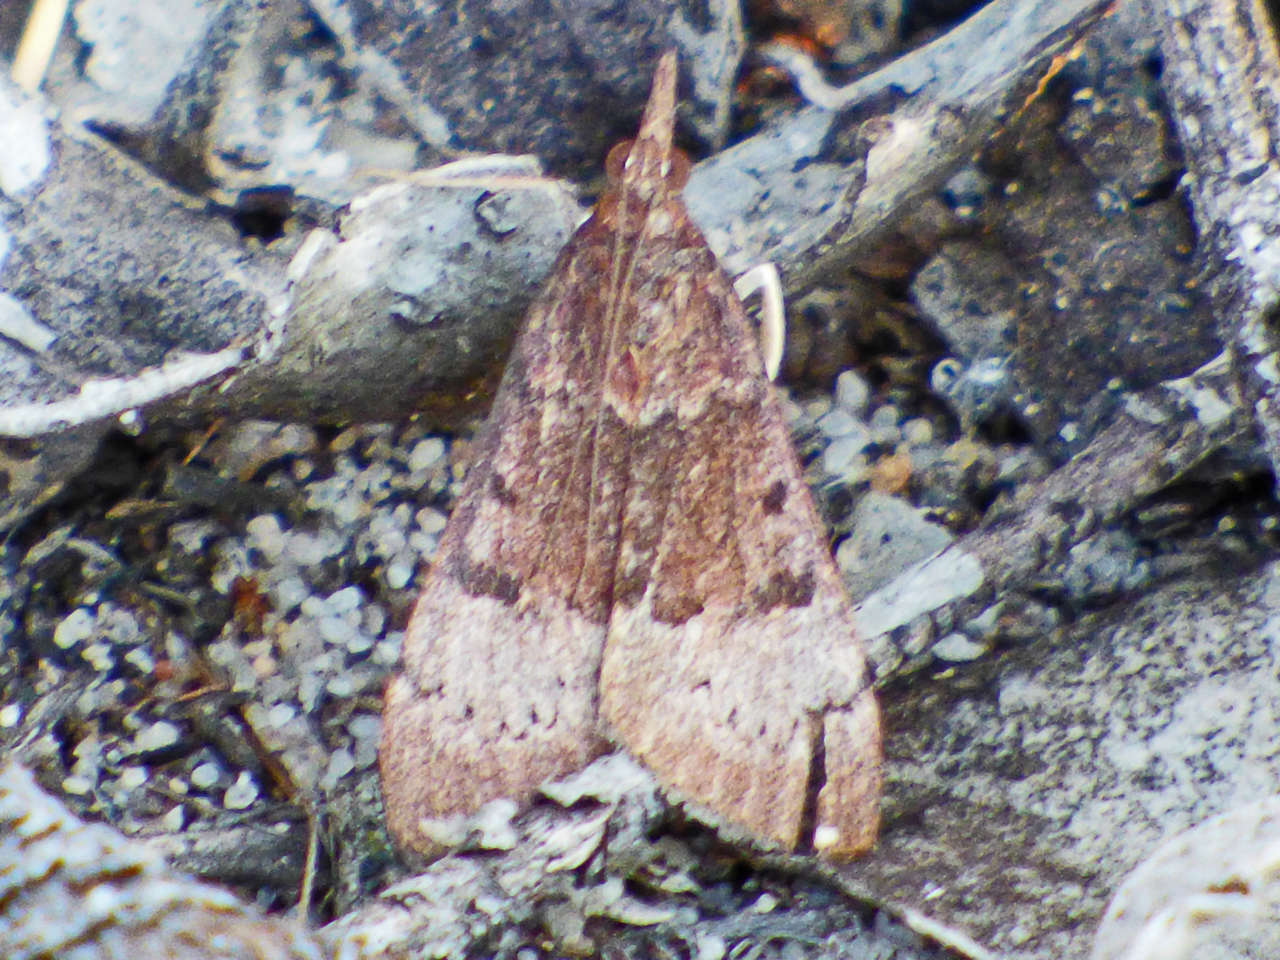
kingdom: Animalia
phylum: Arthropoda
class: Insecta
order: Lepidoptera
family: Crambidae
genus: Uresiphita
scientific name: Uresiphita ornithopteralis
